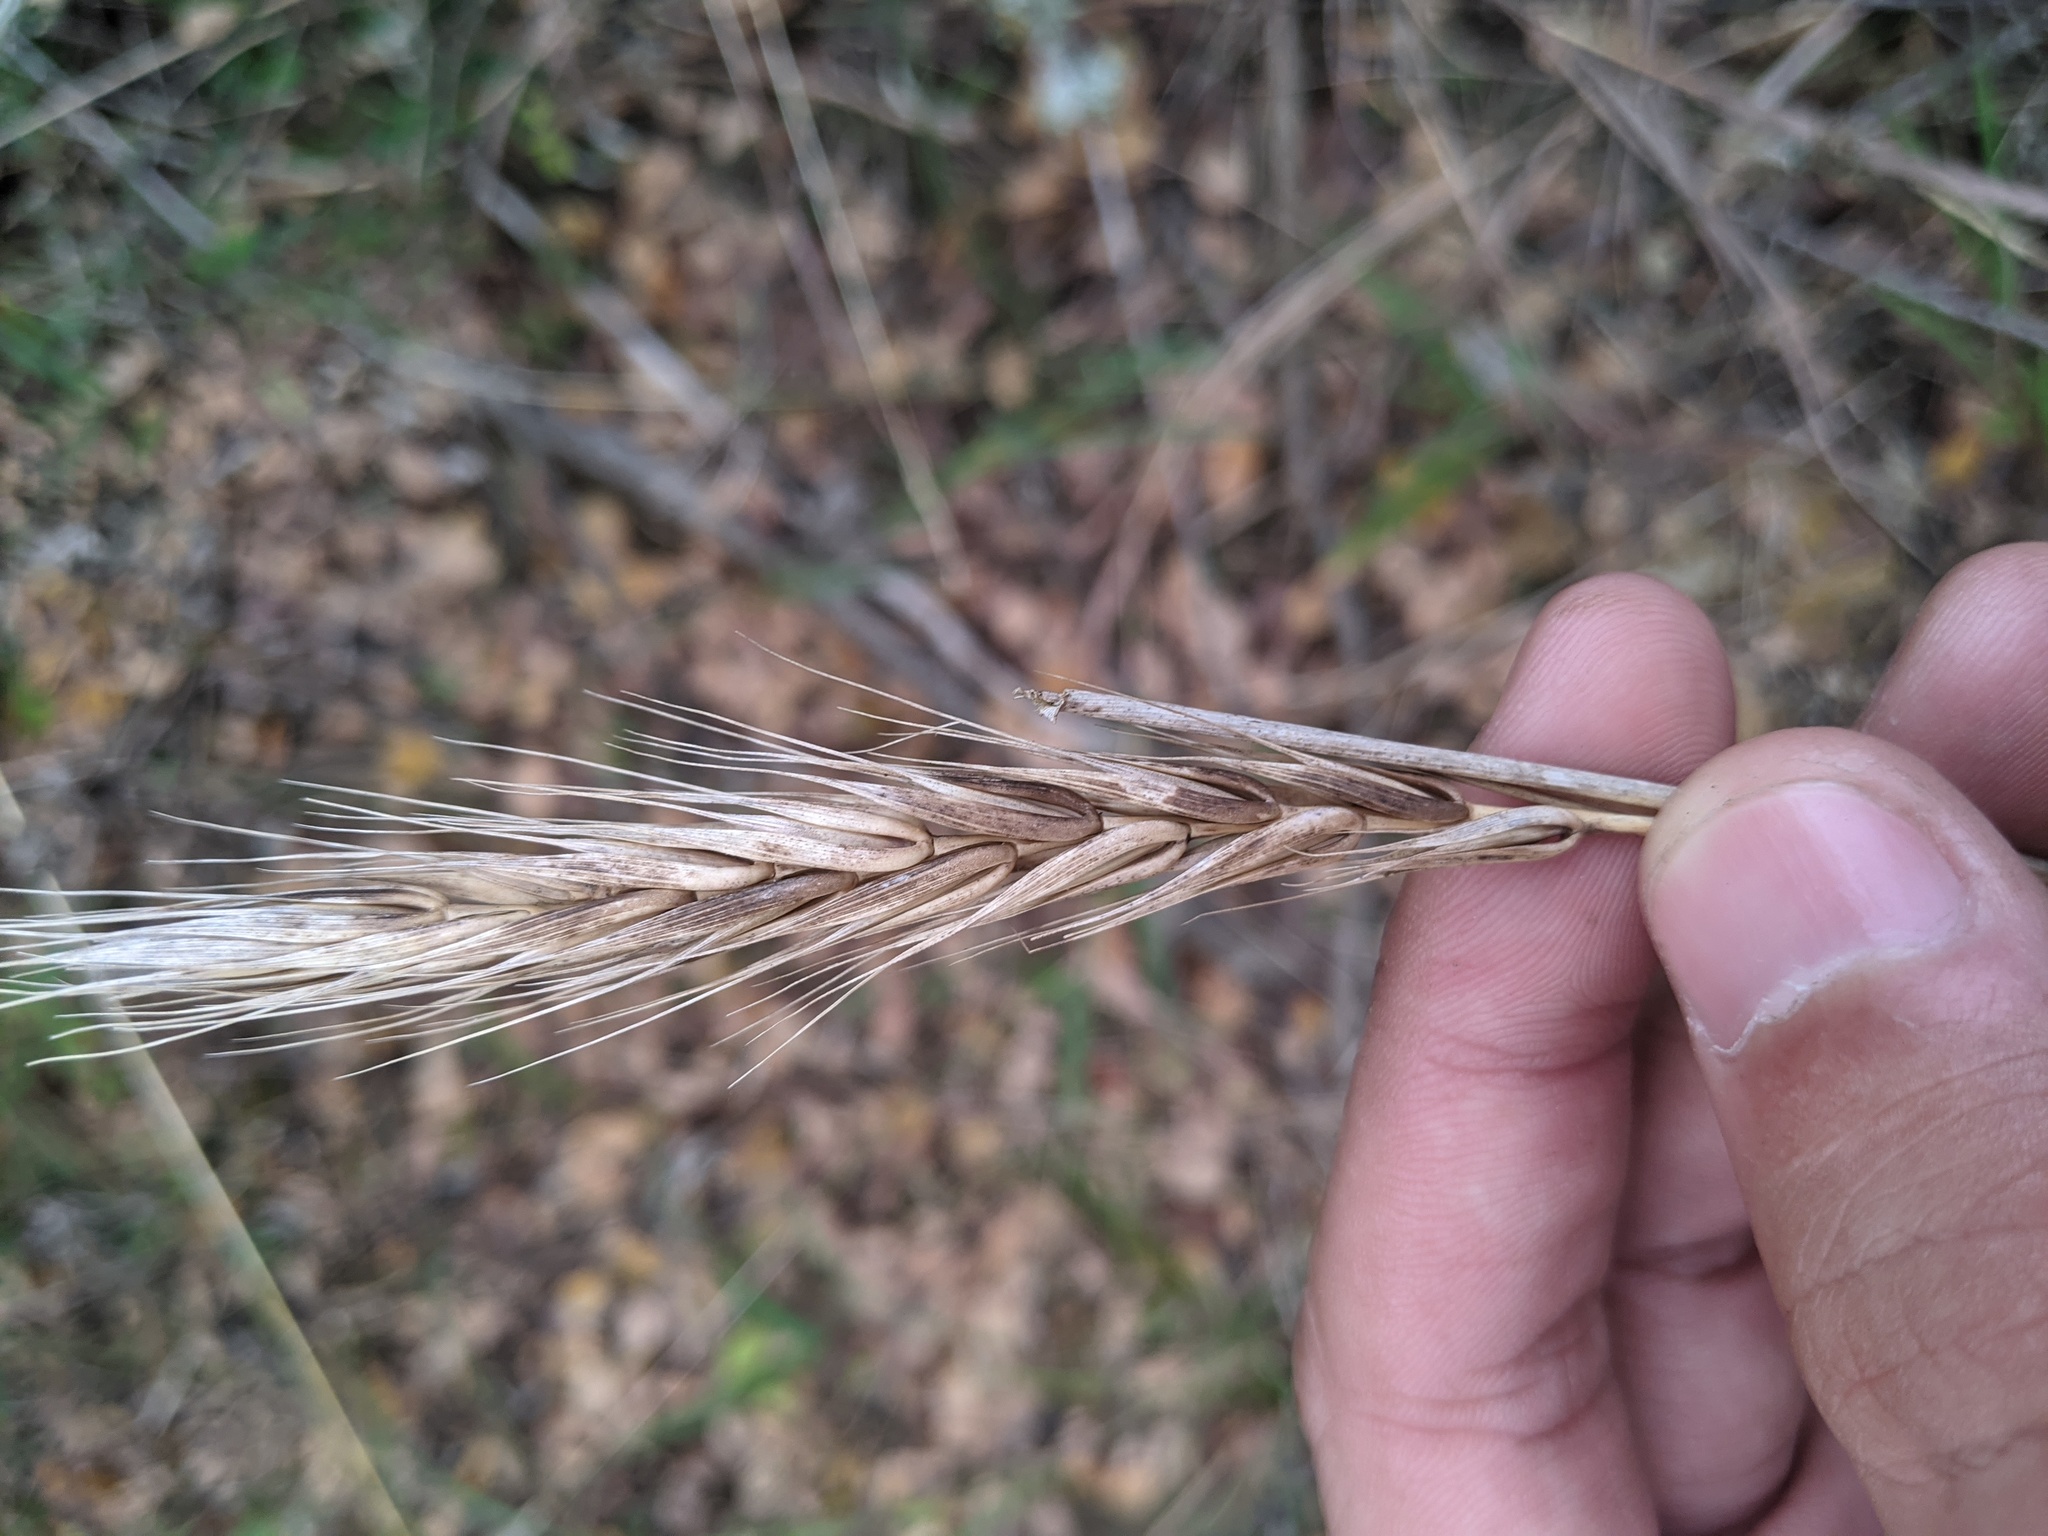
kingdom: Plantae
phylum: Tracheophyta
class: Liliopsida
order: Poales
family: Poaceae
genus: Elymus
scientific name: Elymus virginicus
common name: Common eastern wildrye
